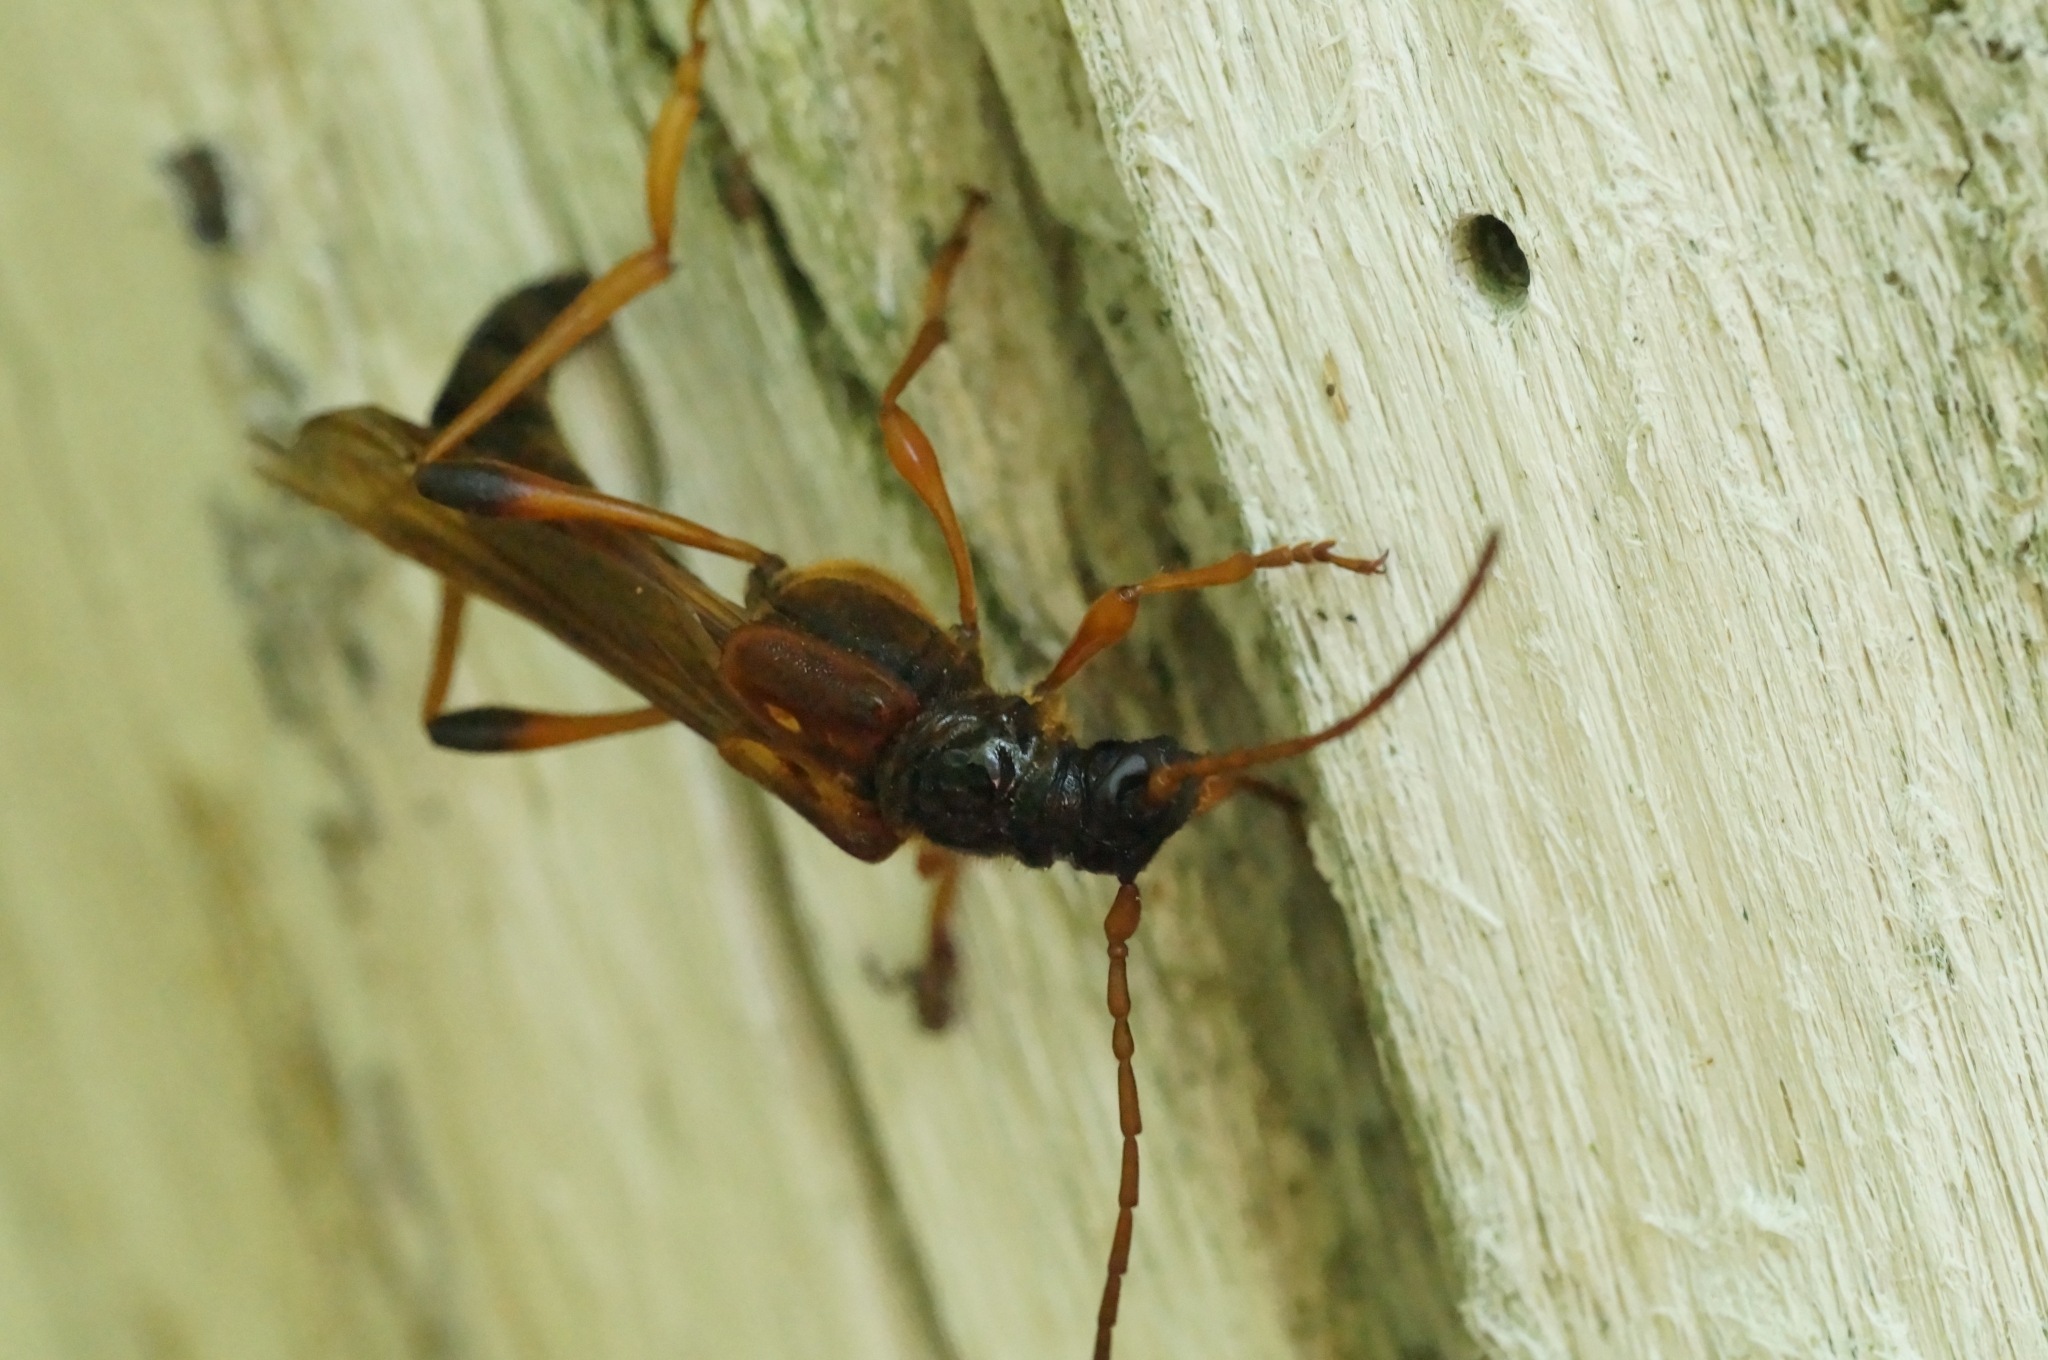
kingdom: Animalia
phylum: Arthropoda
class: Insecta
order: Coleoptera
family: Cerambycidae
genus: Necydalis
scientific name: Necydalis major
